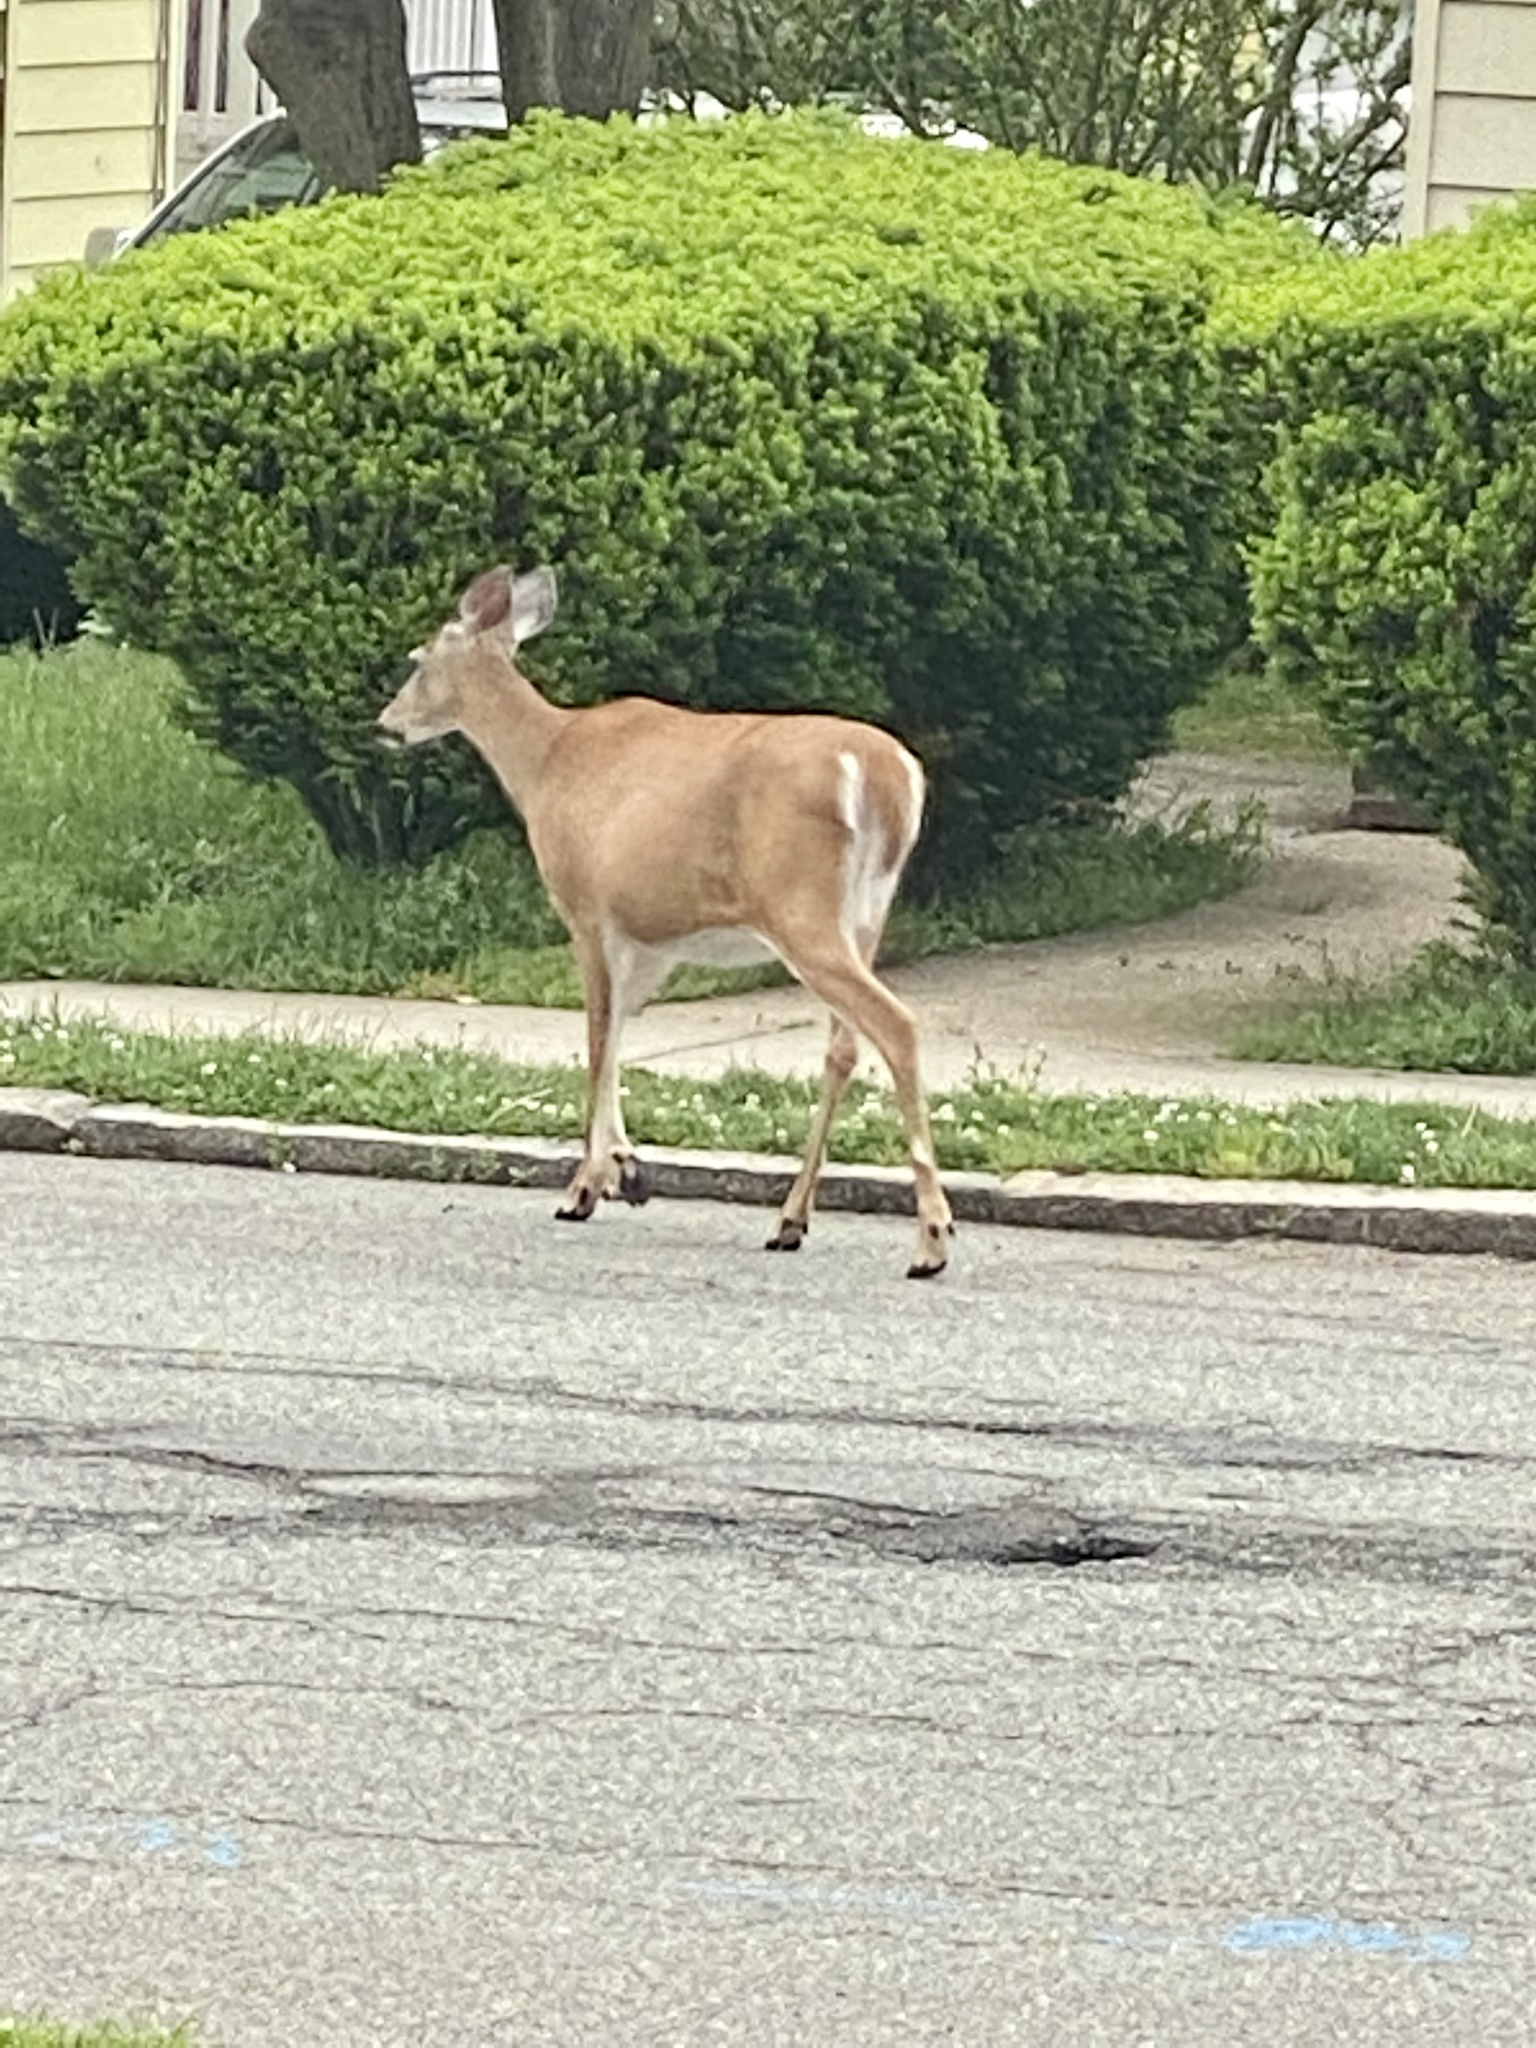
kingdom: Animalia
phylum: Chordata
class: Mammalia
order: Artiodactyla
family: Cervidae
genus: Odocoileus
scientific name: Odocoileus virginianus
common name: White-tailed deer
